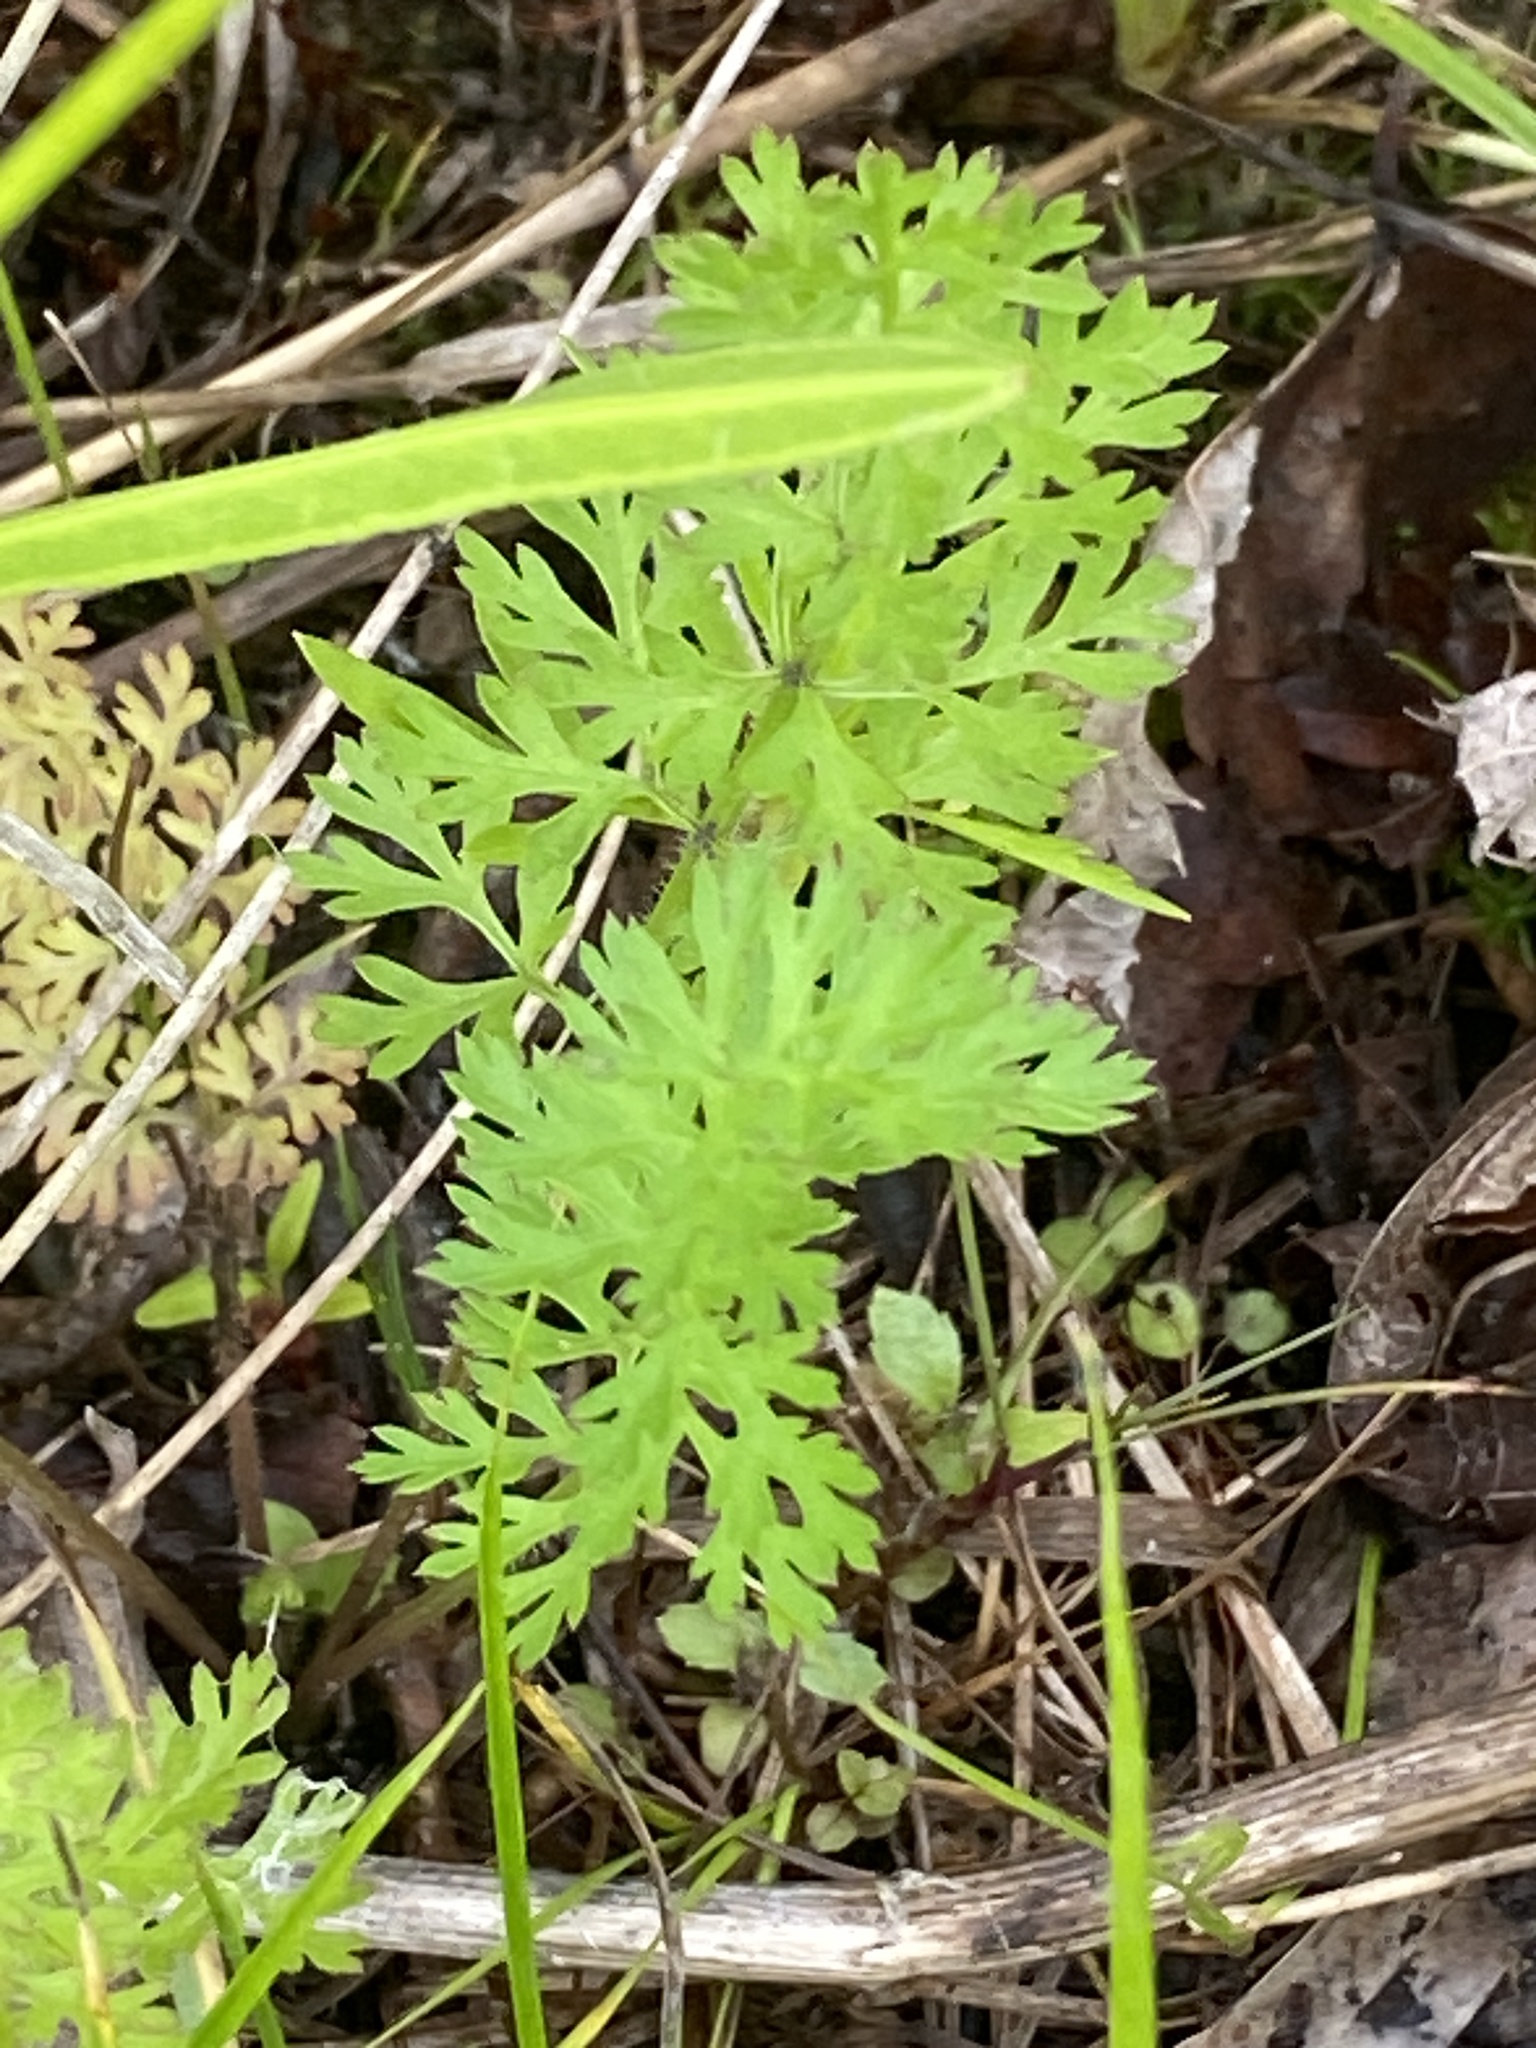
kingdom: Plantae
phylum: Tracheophyta
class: Magnoliopsida
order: Apiales
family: Apiaceae
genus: Daucus
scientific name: Daucus carota
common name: Wild carrot
